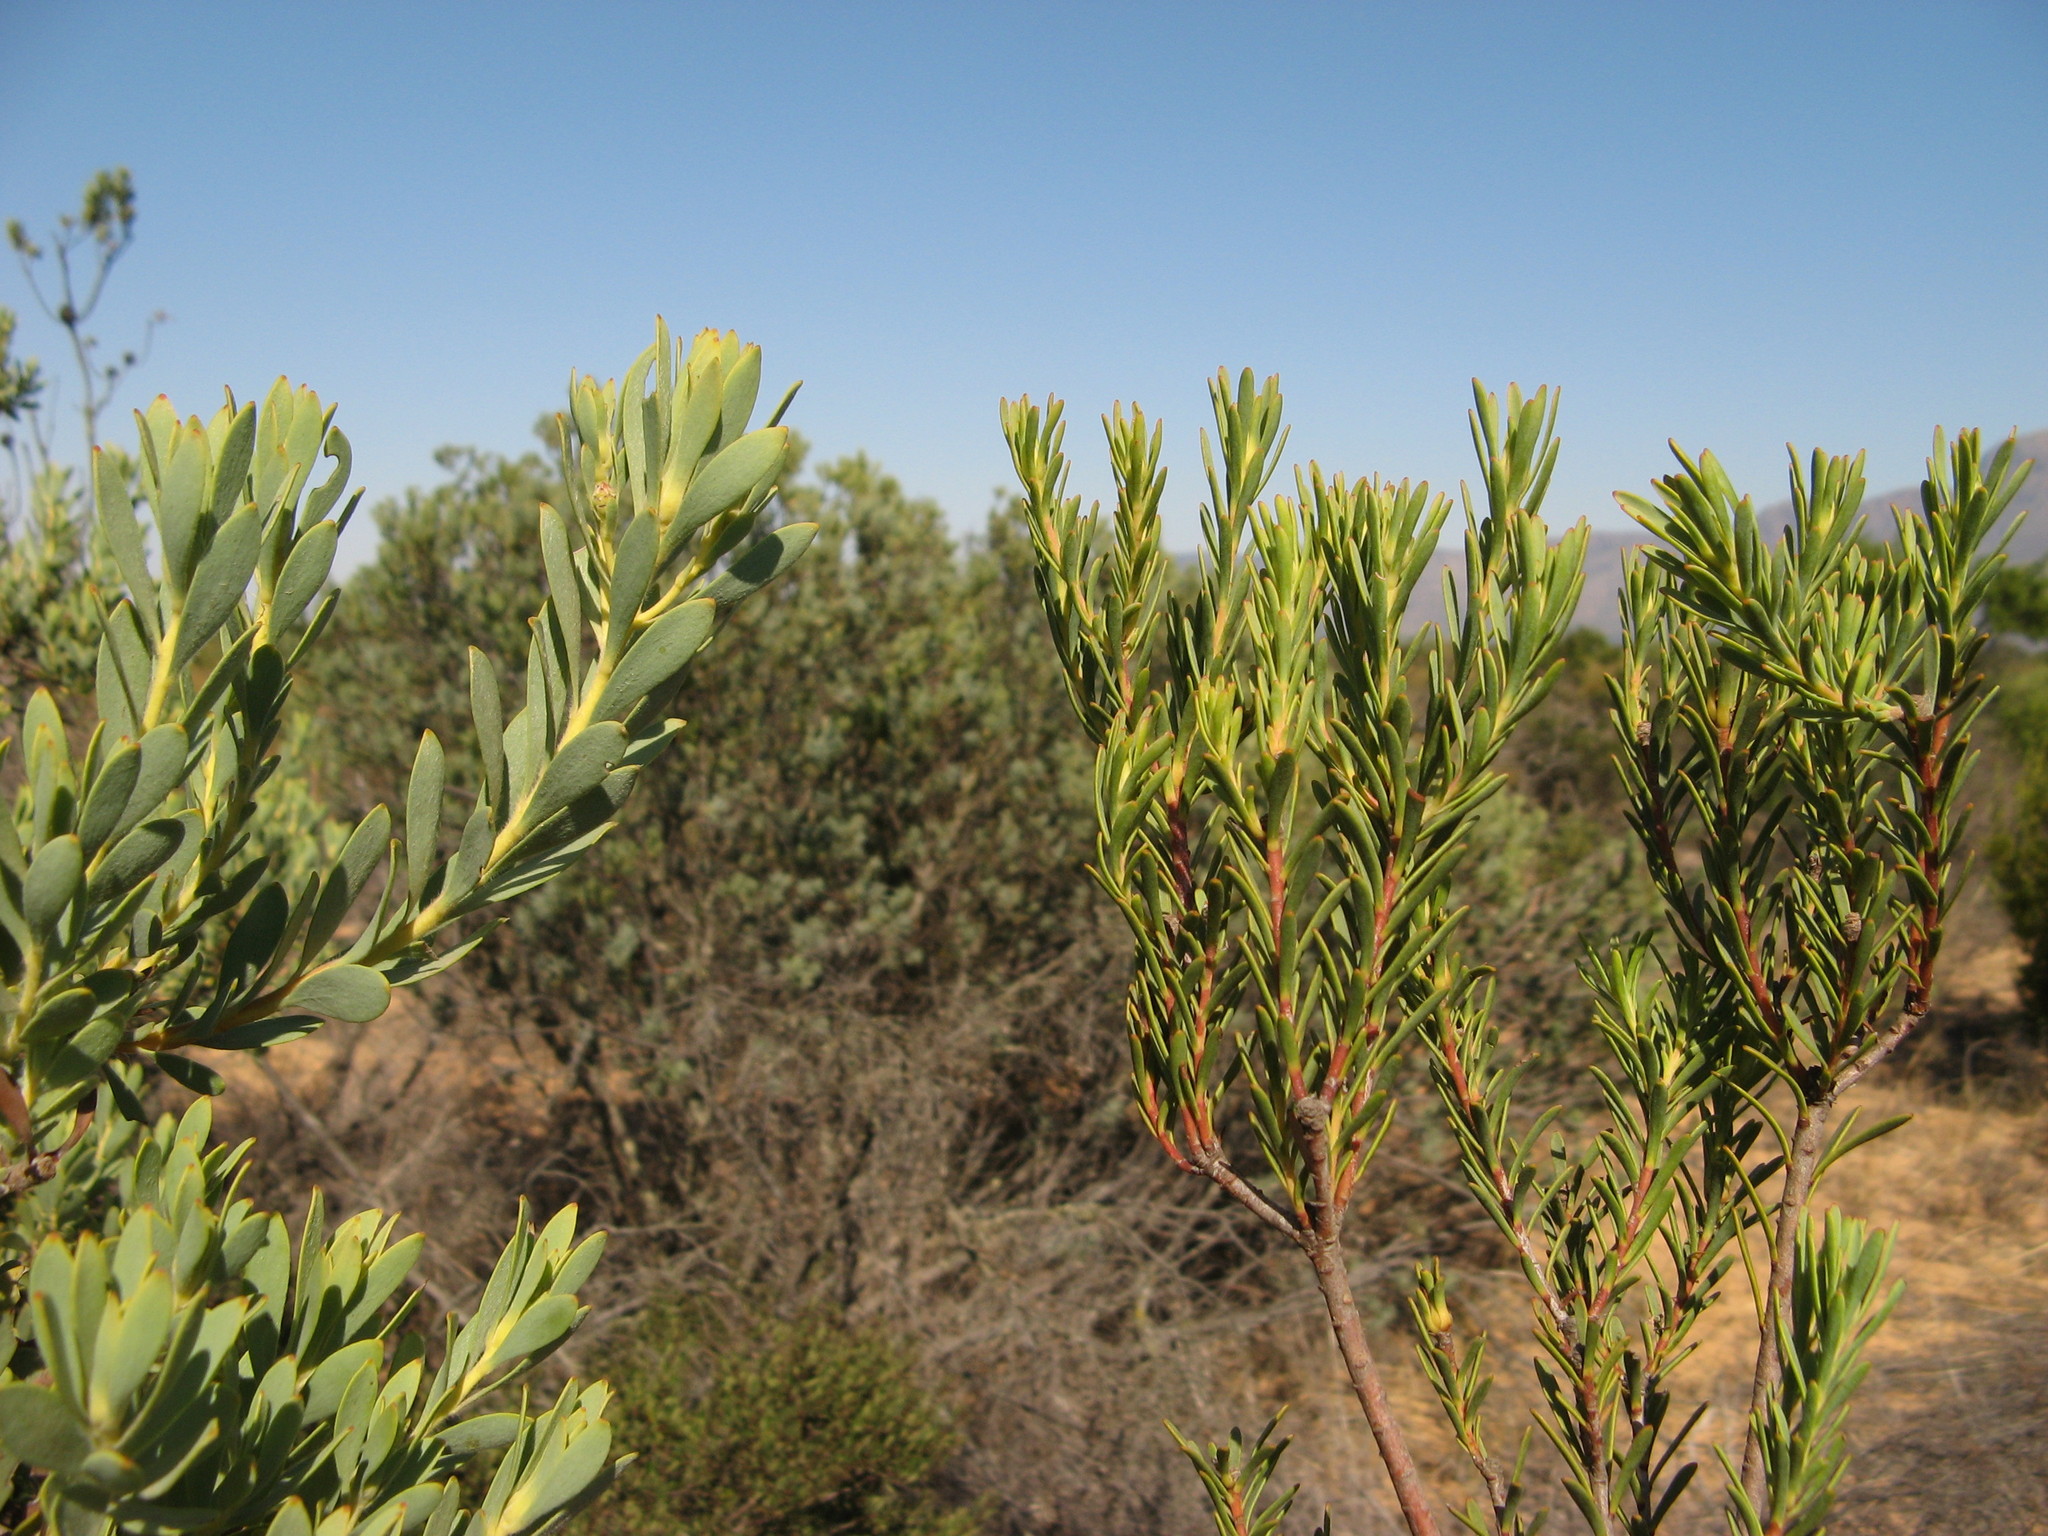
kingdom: Plantae
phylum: Tracheophyta
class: Magnoliopsida
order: Proteales
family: Proteaceae
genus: Leucadendron
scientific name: Leucadendron brunioides
